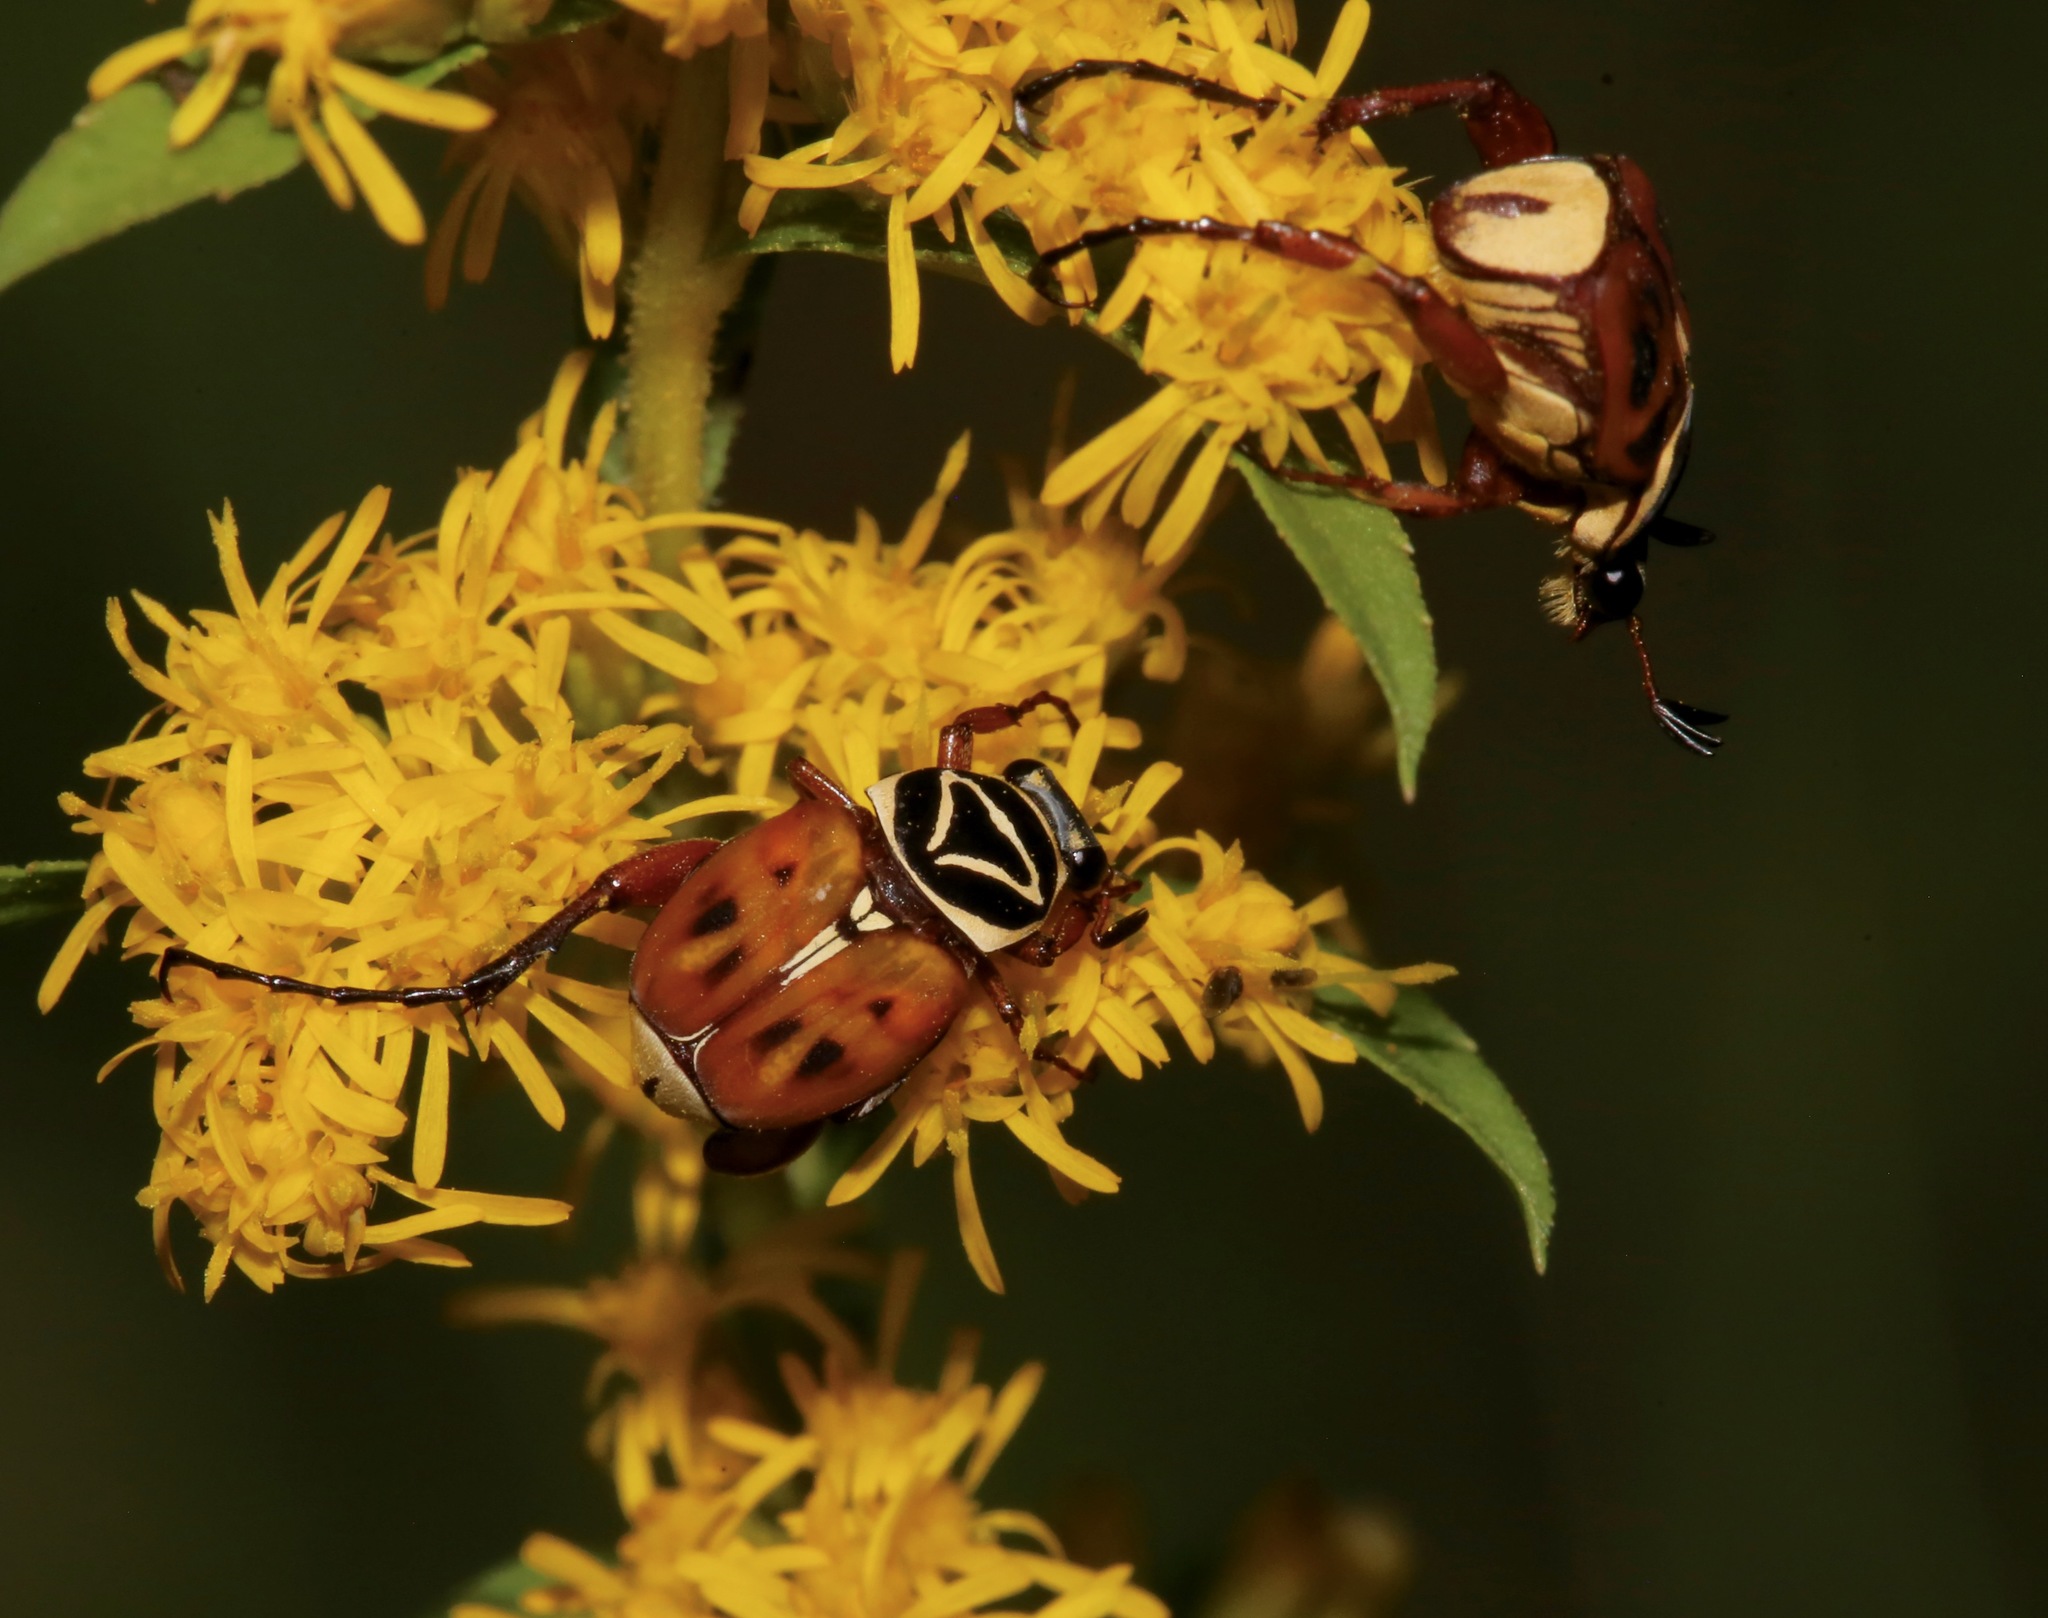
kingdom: Animalia
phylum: Arthropoda
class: Insecta
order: Coleoptera
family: Scarabaeidae
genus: Trigonopeltastes
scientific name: Trigonopeltastes delta
